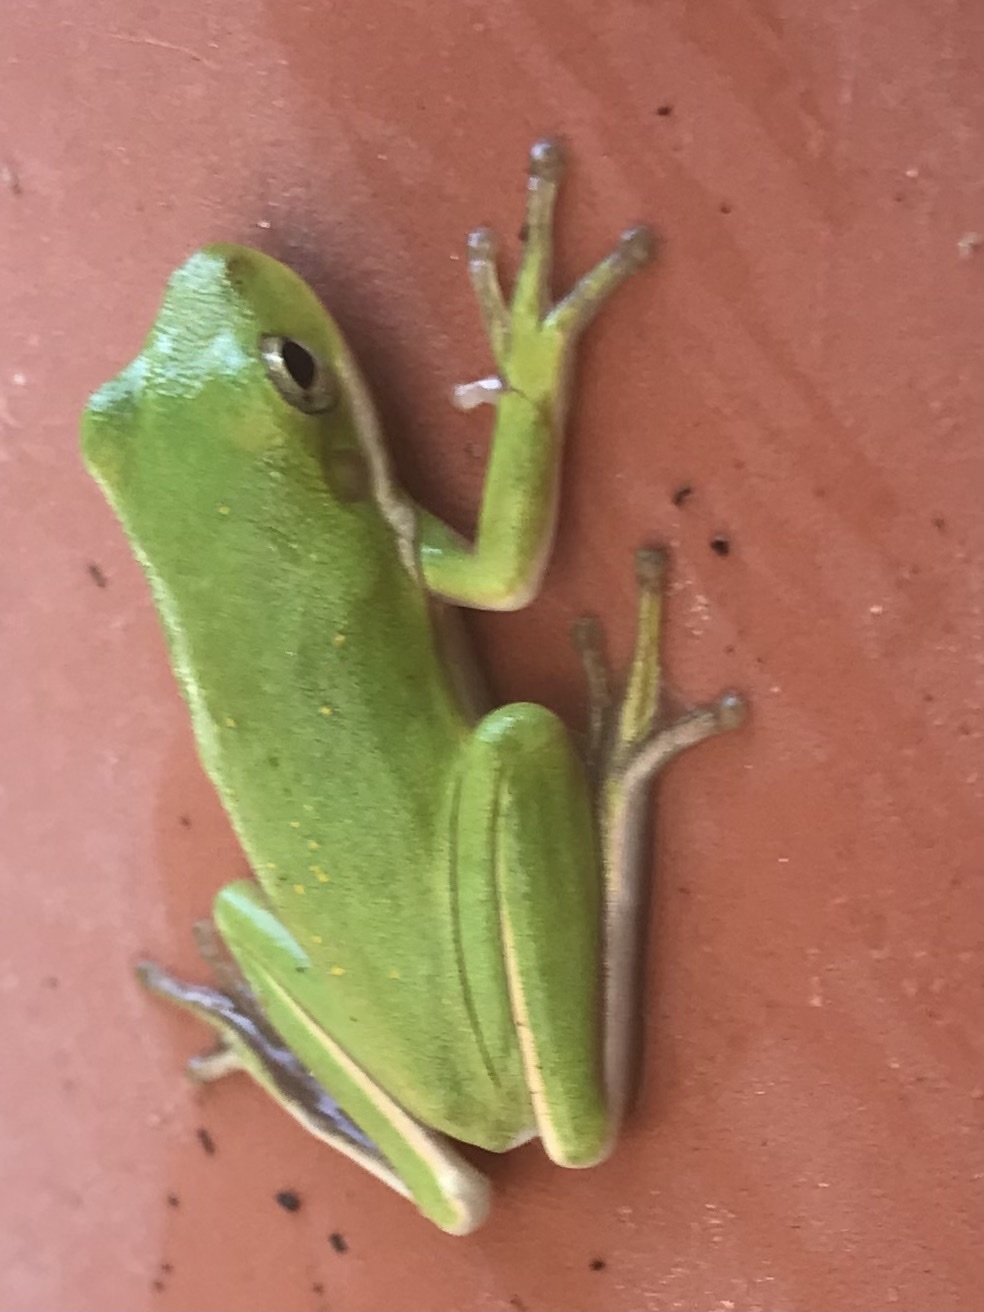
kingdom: Animalia
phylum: Chordata
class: Amphibia
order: Anura
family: Hylidae
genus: Dryophytes
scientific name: Dryophytes cinereus
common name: Green treefrog
